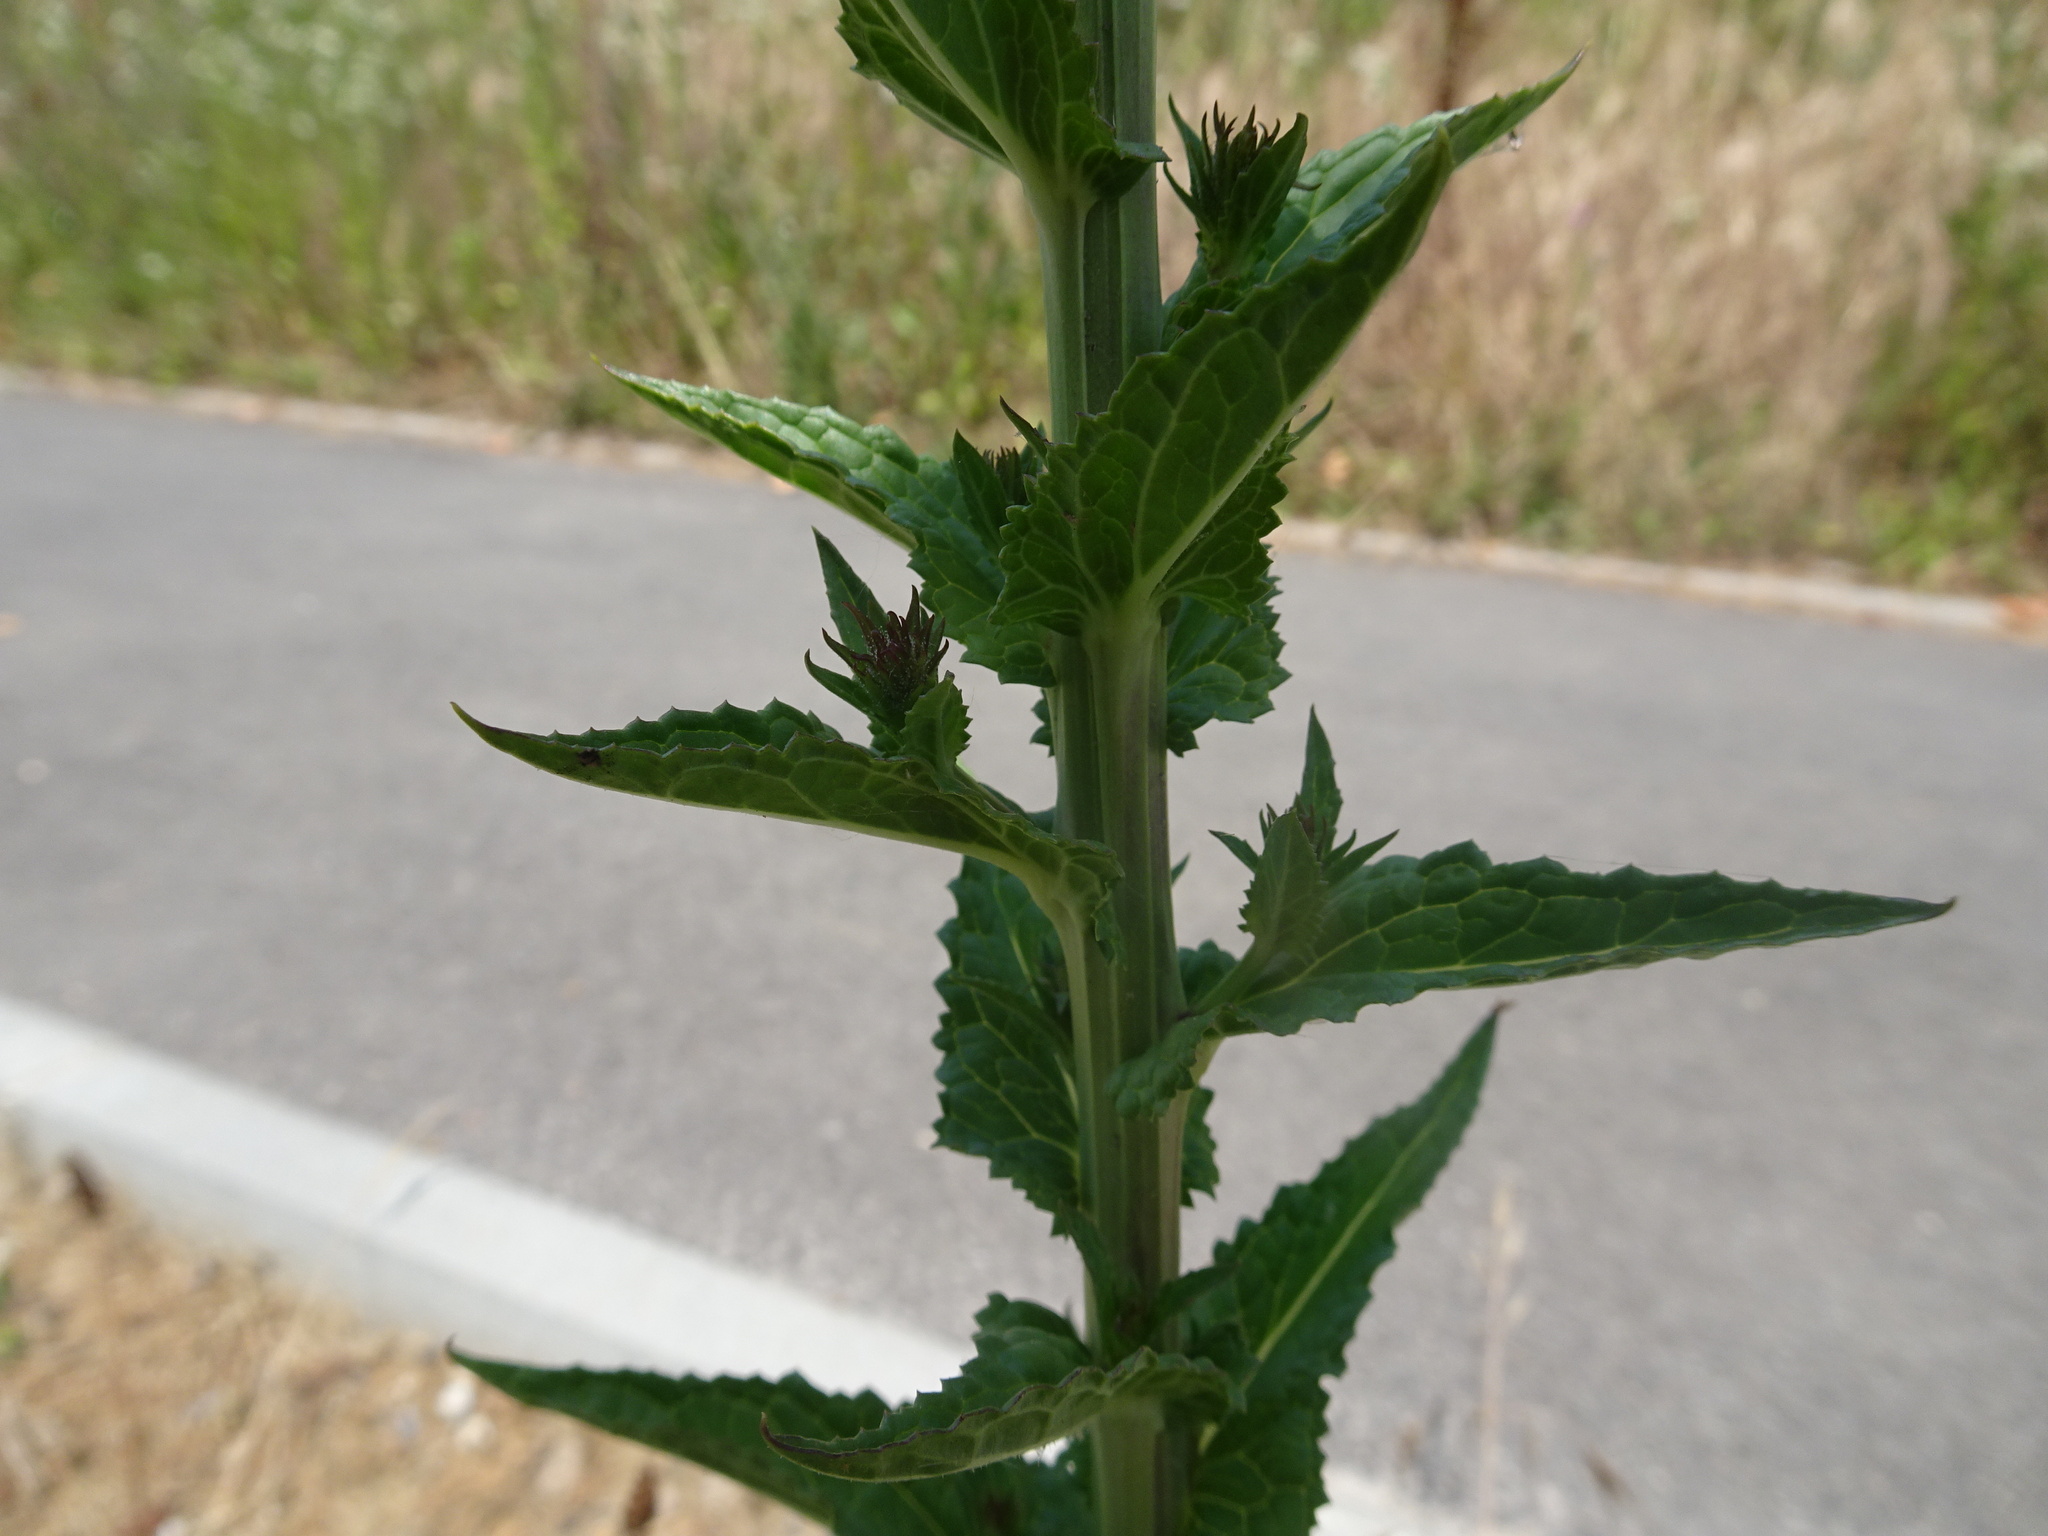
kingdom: Plantae
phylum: Tracheophyta
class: Magnoliopsida
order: Lamiales
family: Scrophulariaceae
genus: Verbascum
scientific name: Verbascum blattaria
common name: Moth mullein
